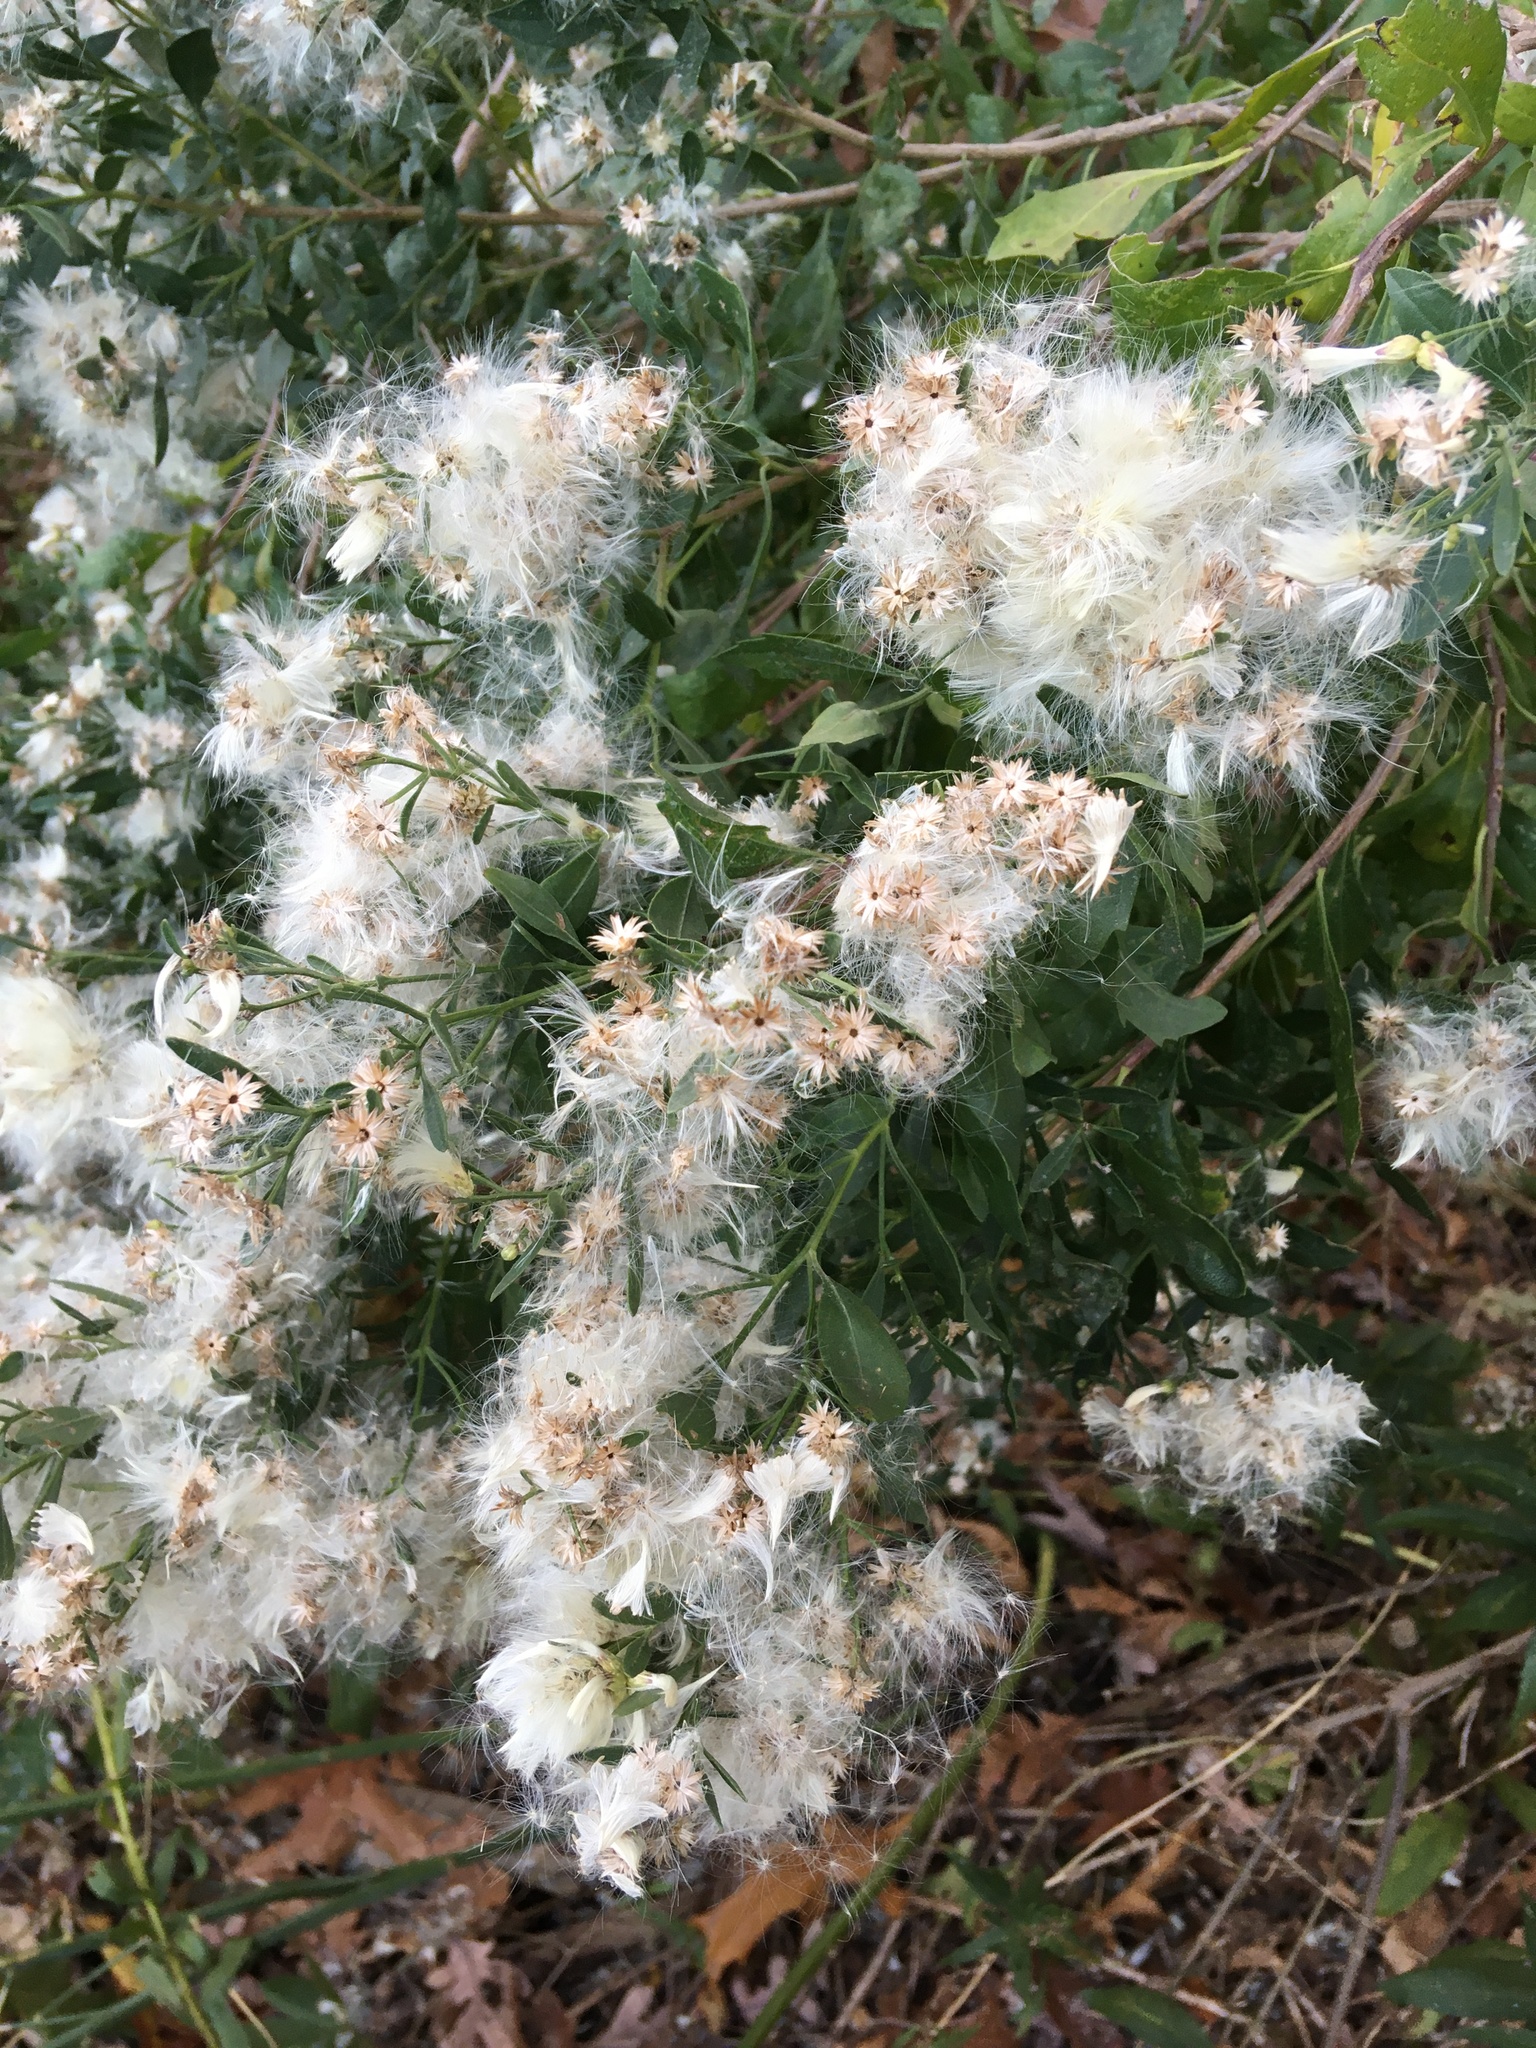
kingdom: Plantae
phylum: Tracheophyta
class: Magnoliopsida
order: Asterales
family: Asteraceae
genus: Baccharis
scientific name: Baccharis halimifolia
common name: Eastern baccharis
